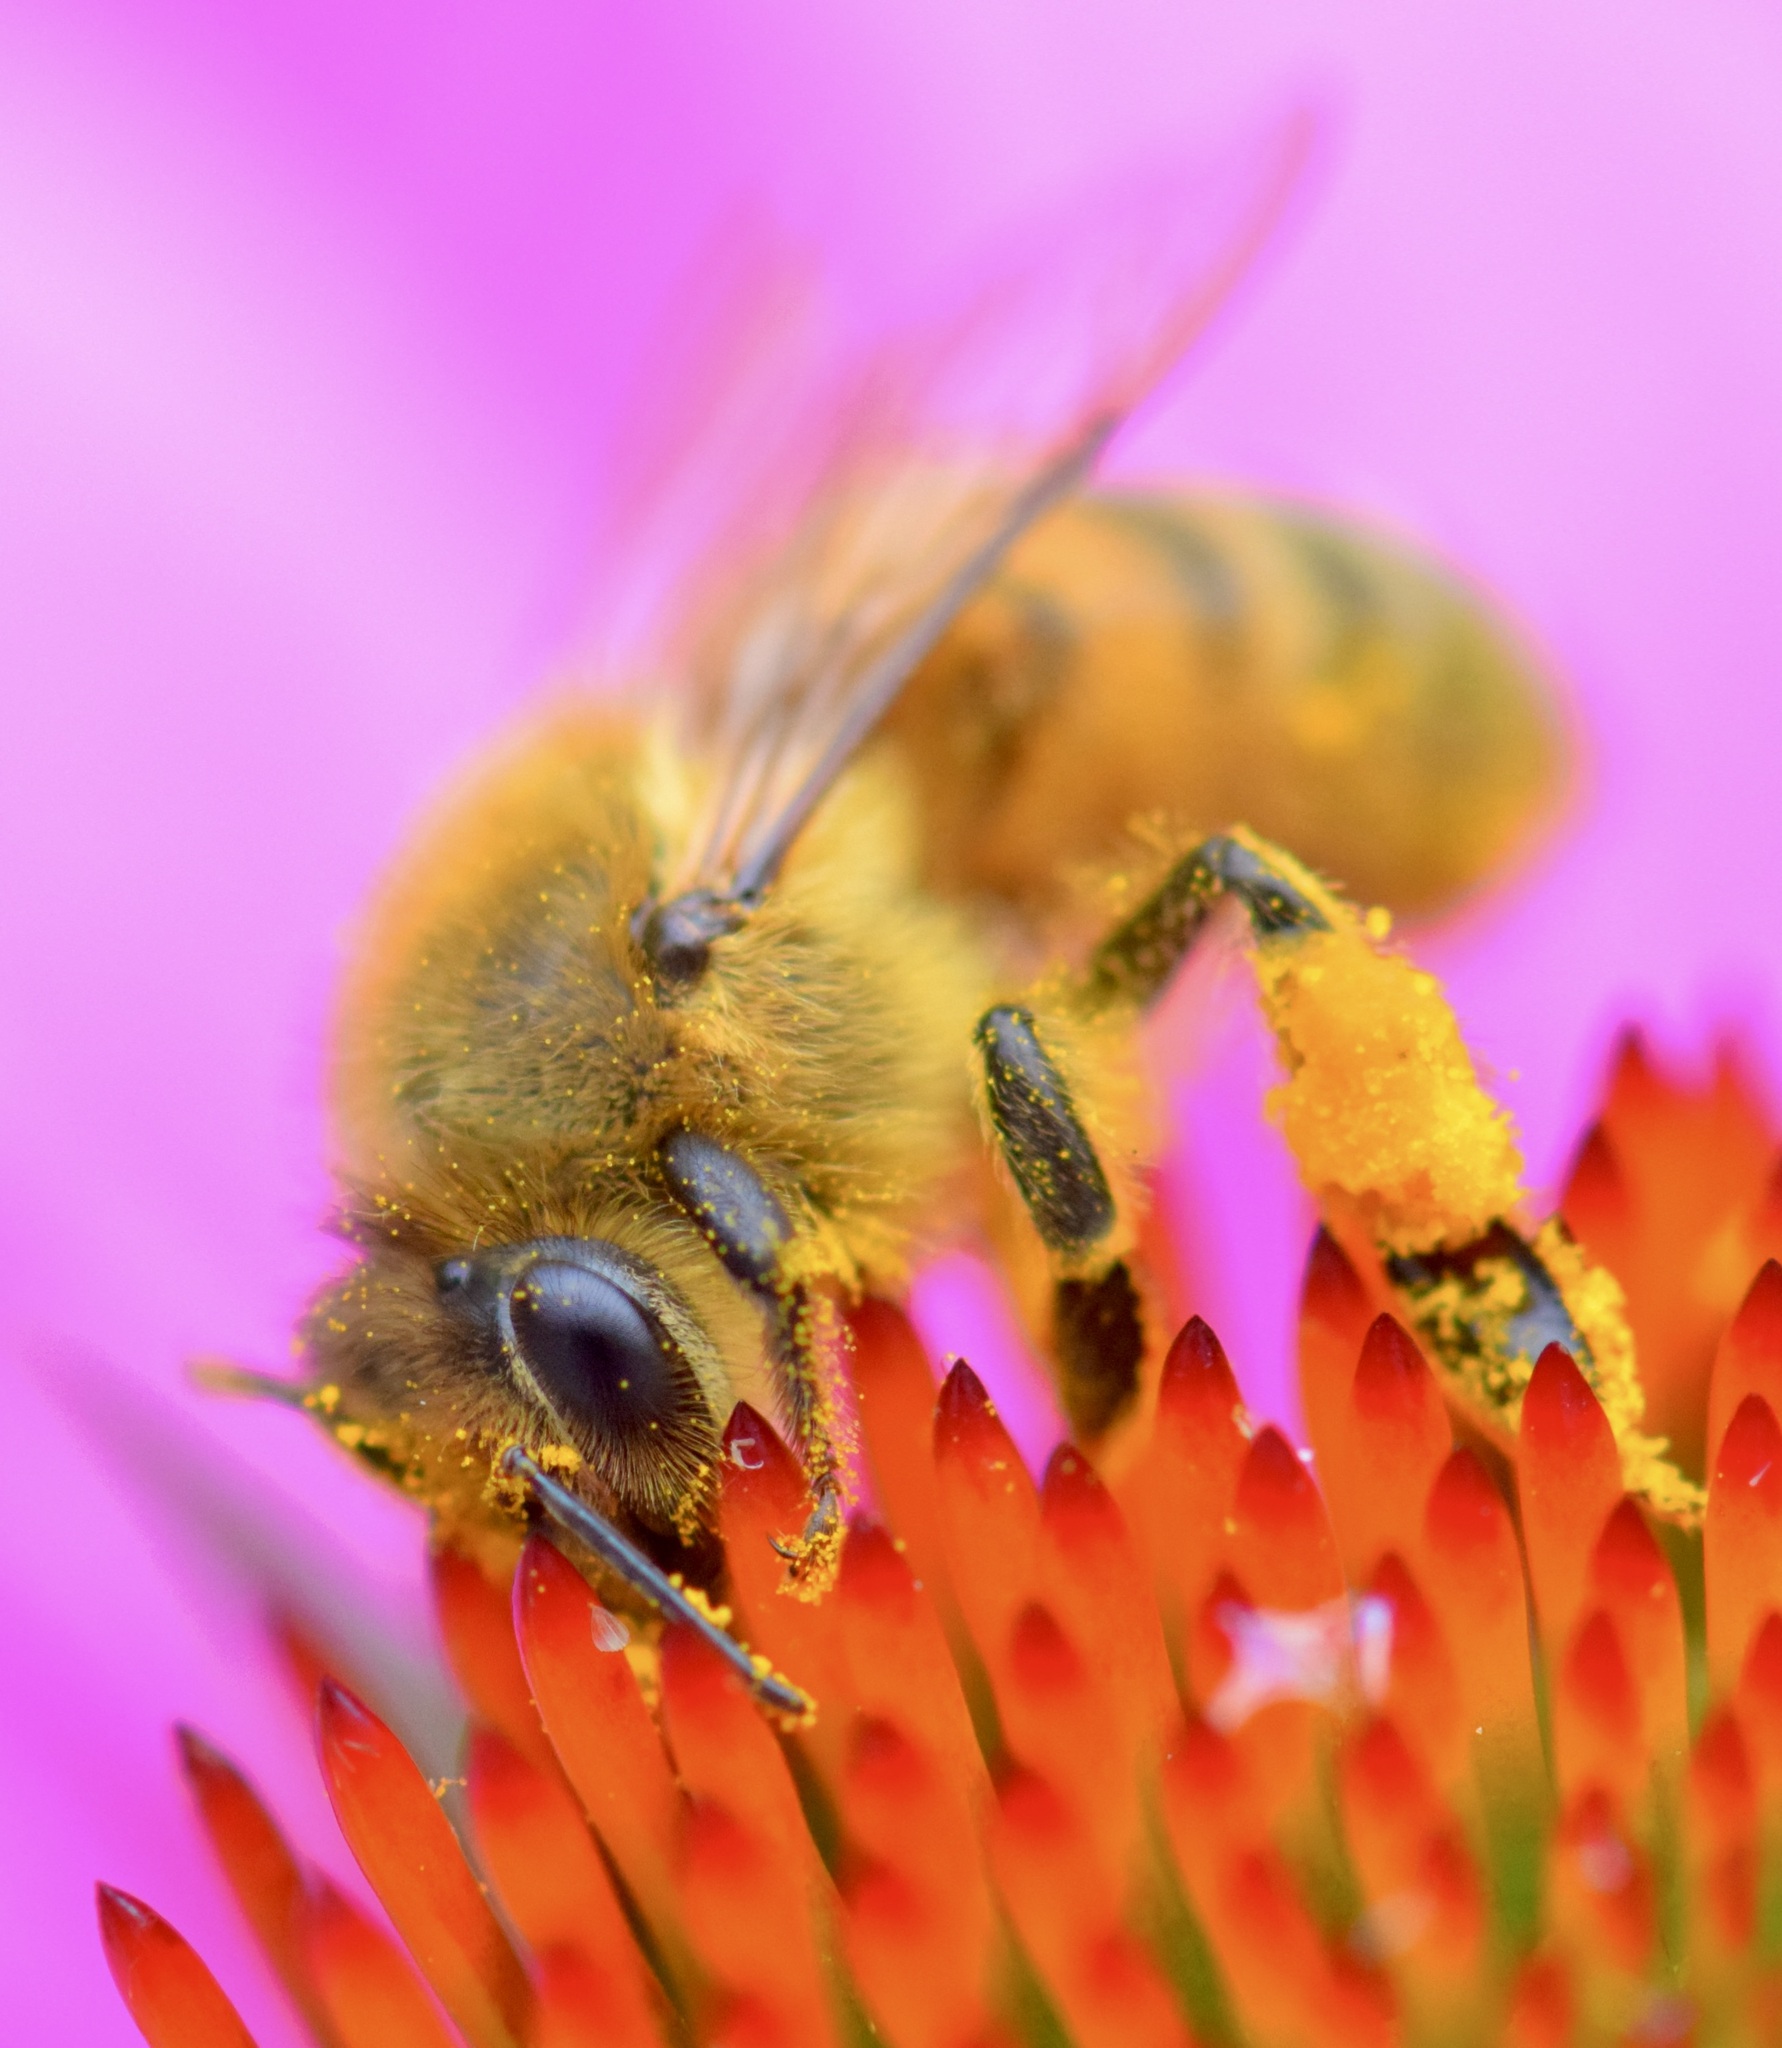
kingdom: Animalia
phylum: Arthropoda
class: Insecta
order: Hymenoptera
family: Apidae
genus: Apis
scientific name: Apis mellifera
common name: Honey bee
